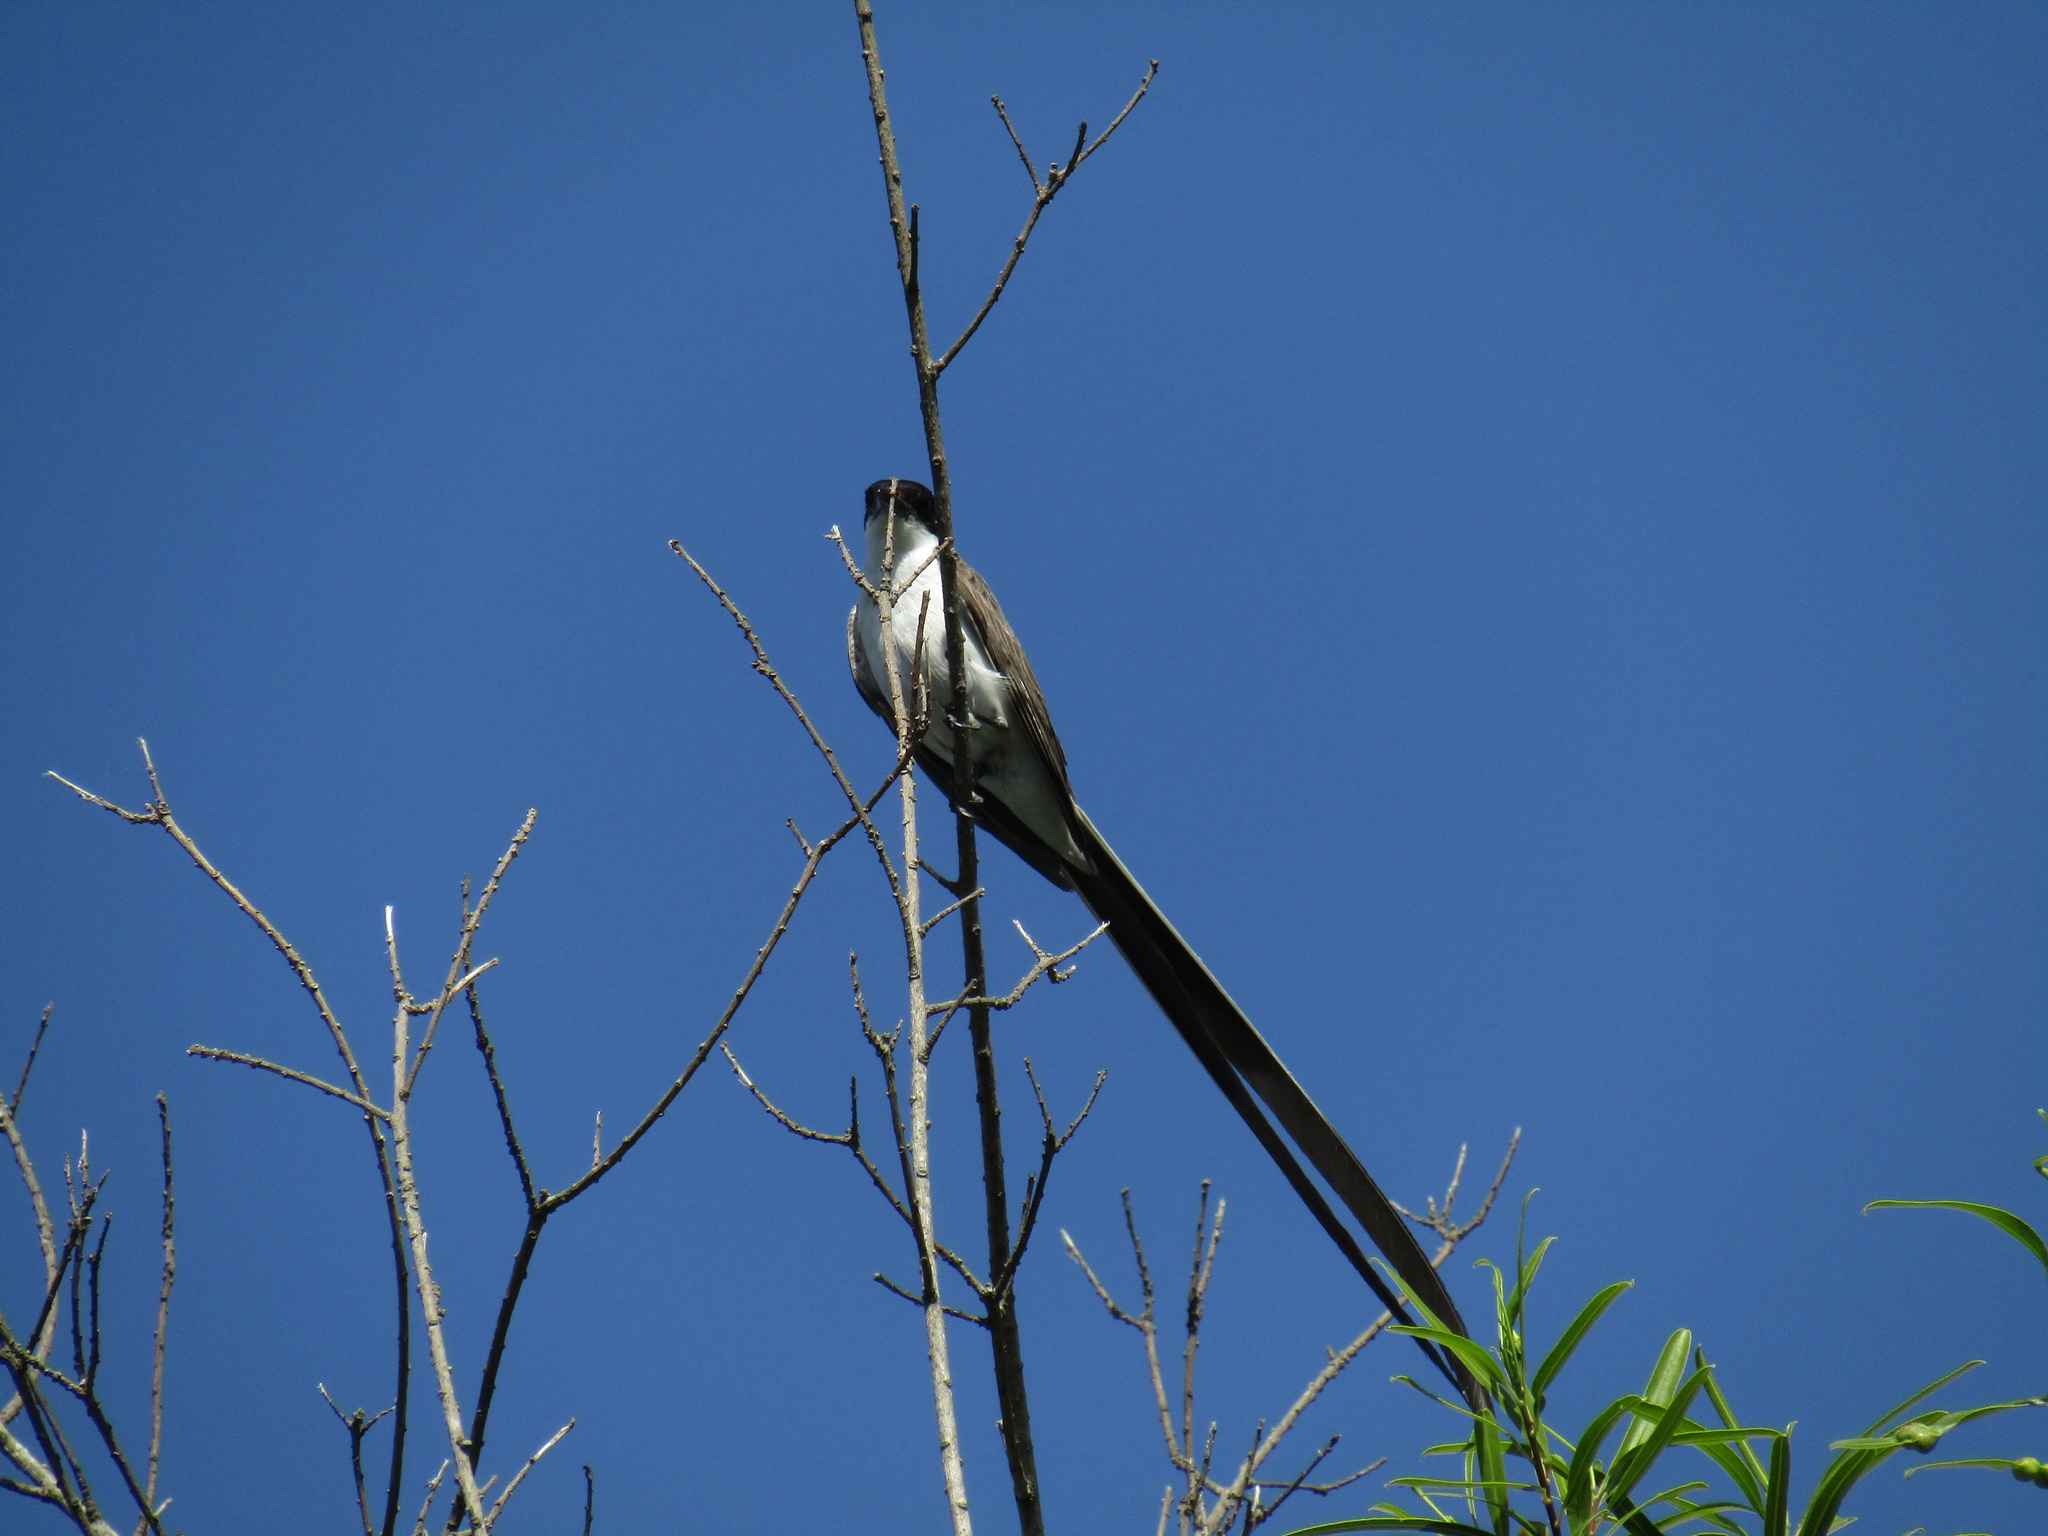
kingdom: Animalia
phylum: Chordata
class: Aves
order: Passeriformes
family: Tyrannidae
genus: Tyrannus
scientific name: Tyrannus savana
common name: Fork-tailed flycatcher
